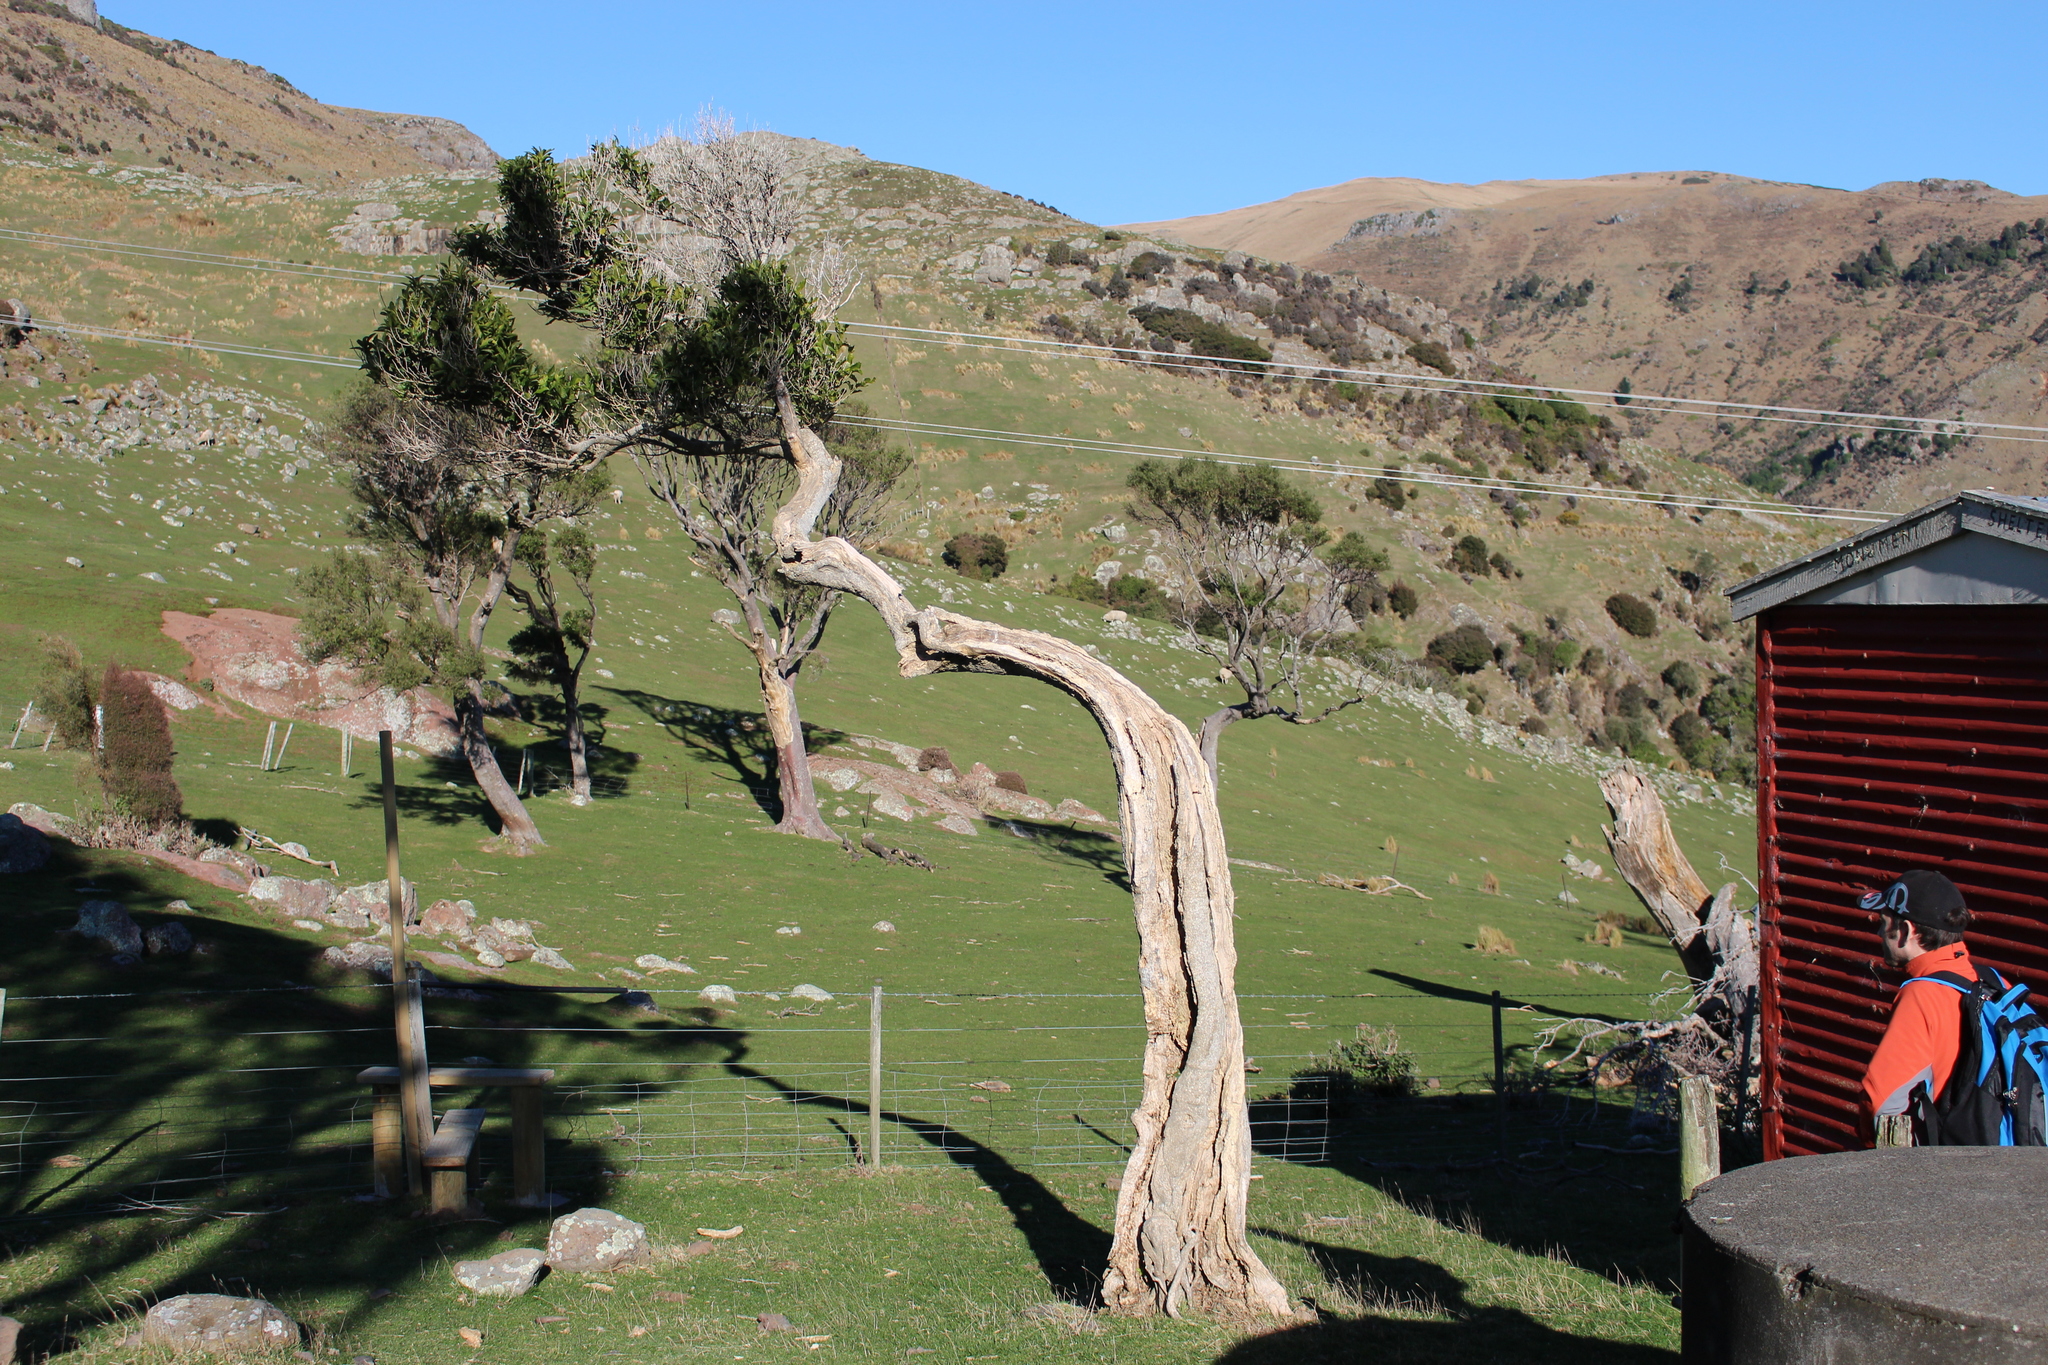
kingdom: Plantae
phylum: Tracheophyta
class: Magnoliopsida
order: Malpighiales
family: Violaceae
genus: Melicytus
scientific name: Melicytus ramiflorus
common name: Mahoe
